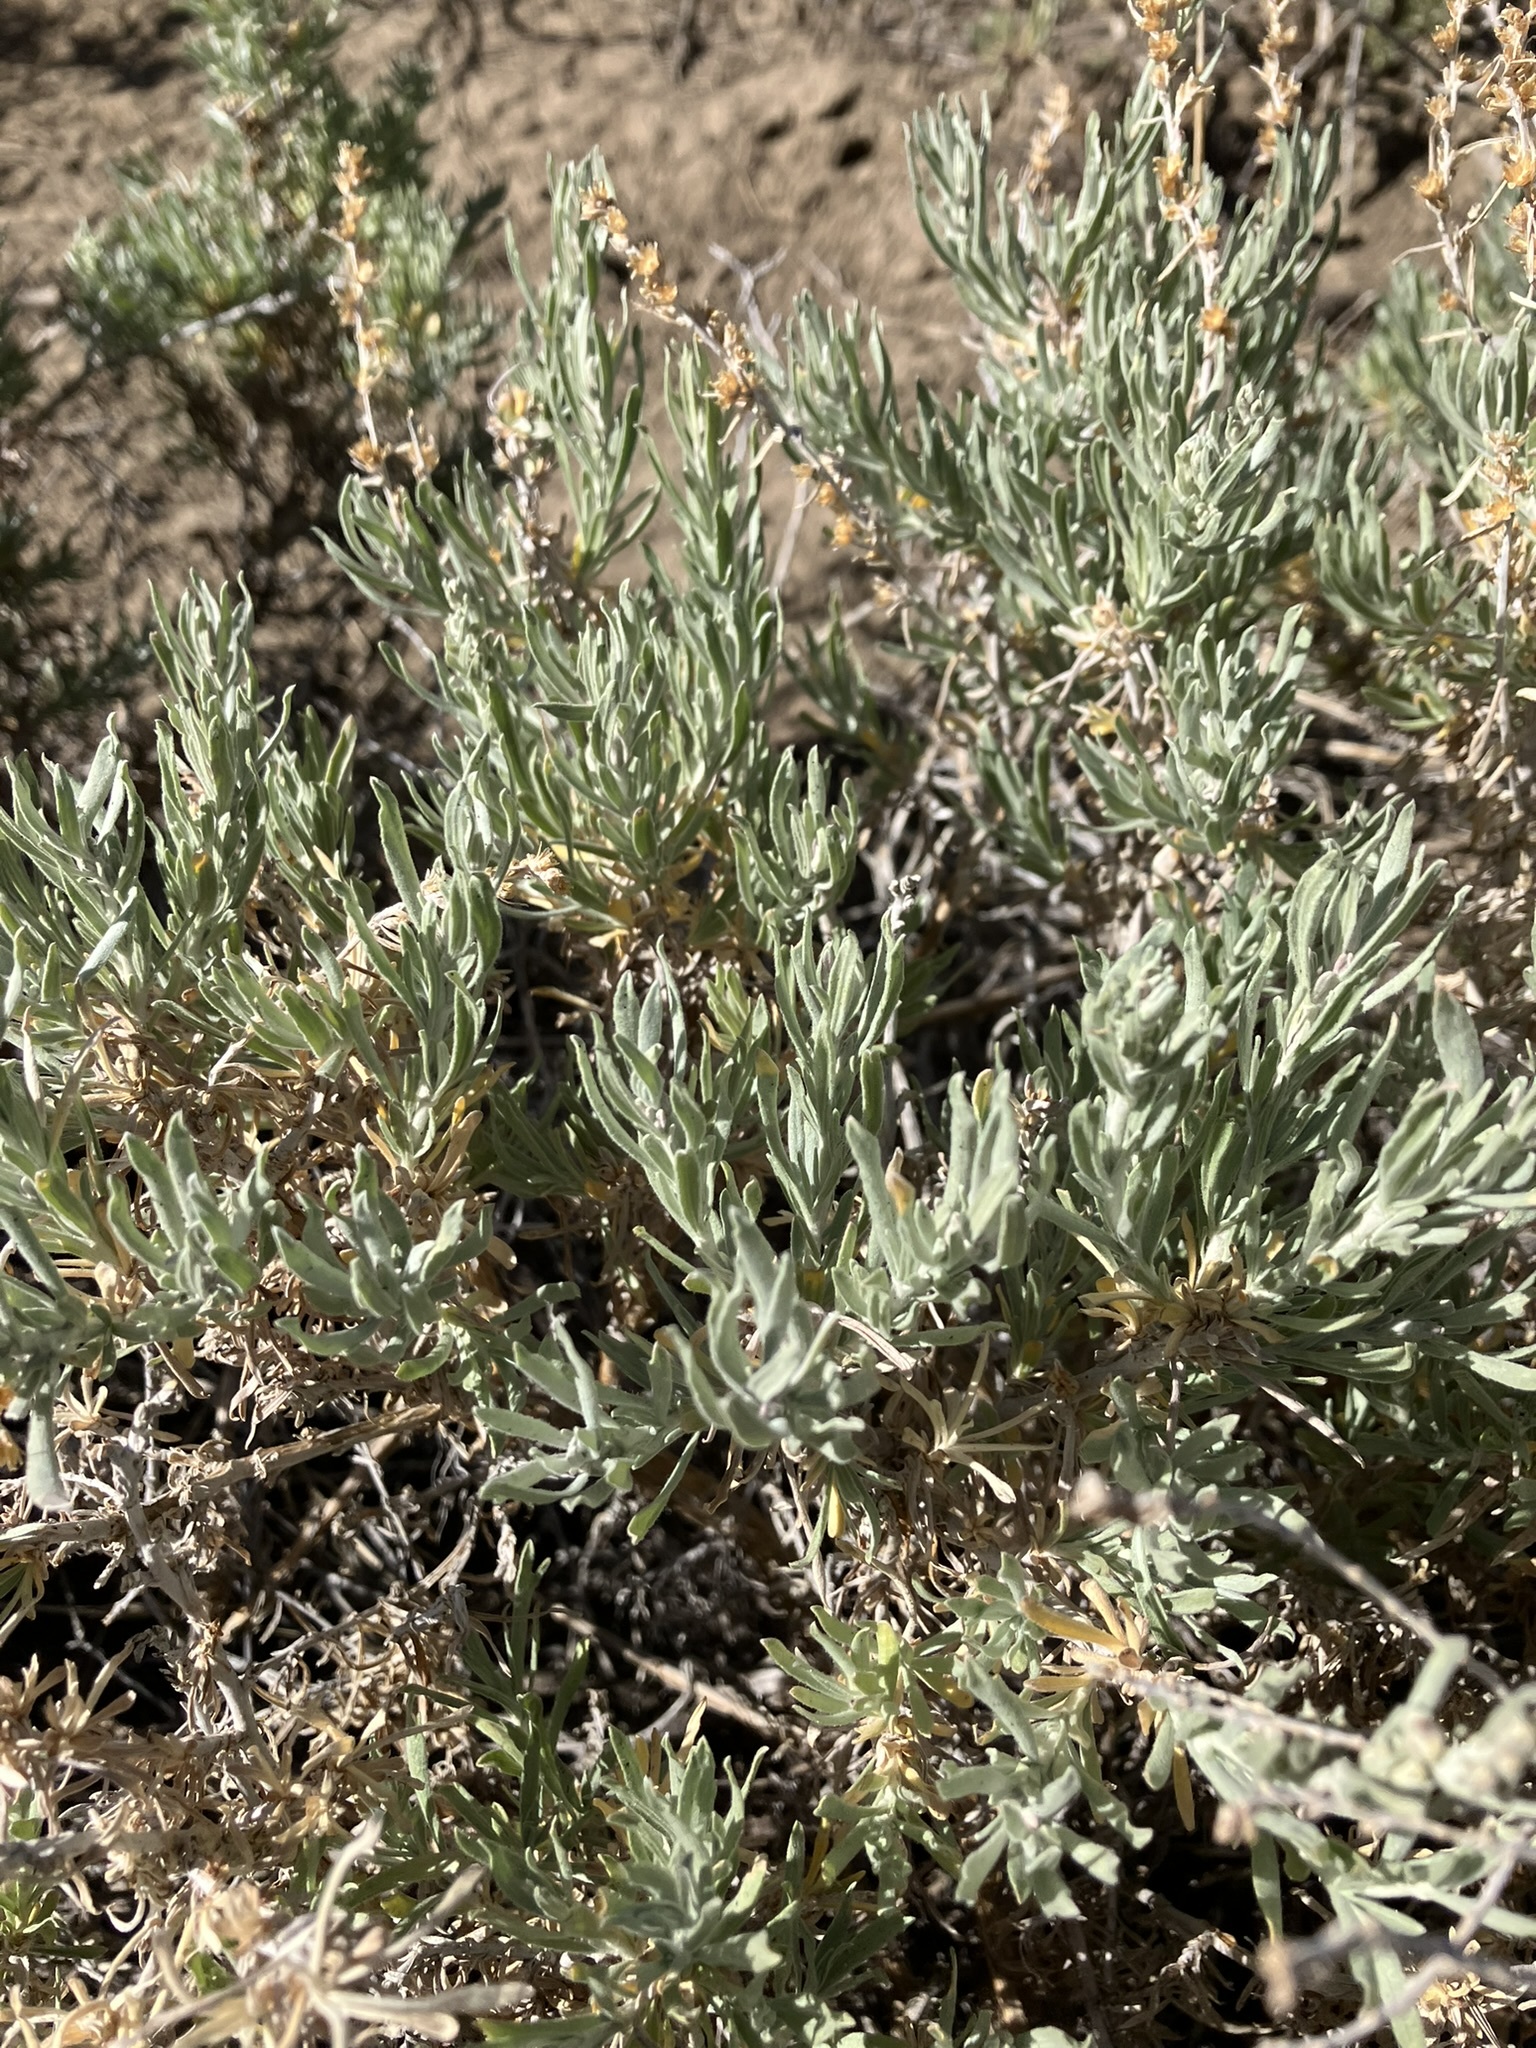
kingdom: Plantae
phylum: Tracheophyta
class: Magnoliopsida
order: Asterales
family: Asteraceae
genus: Artemisia
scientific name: Artemisia cana
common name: Silver sagebrush
